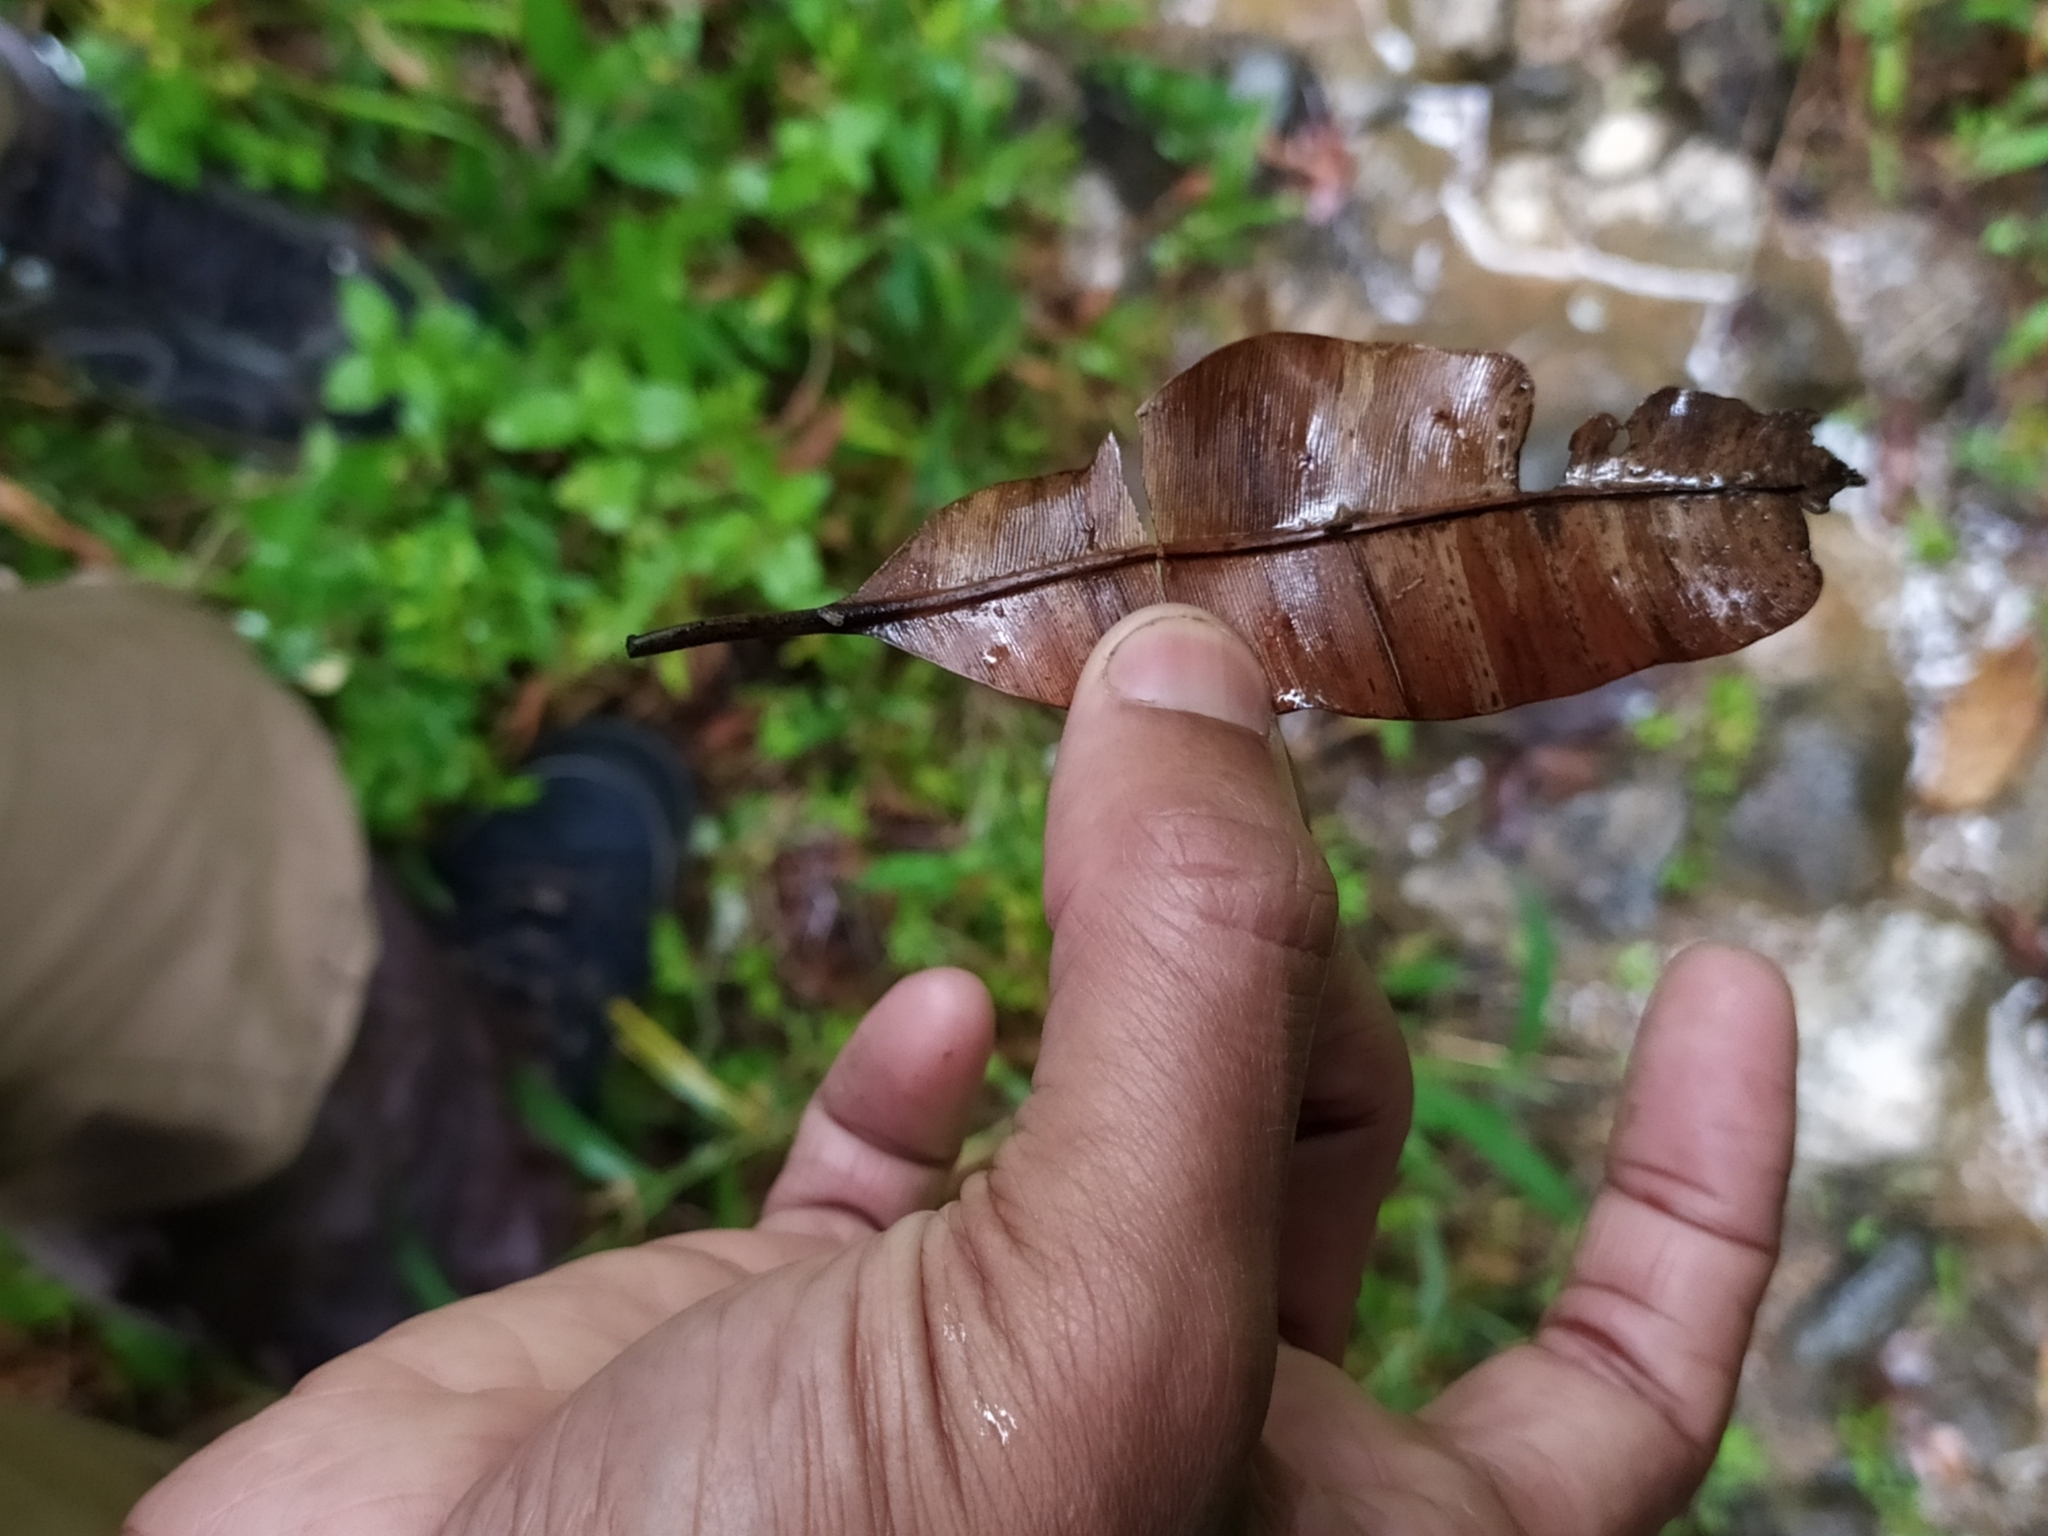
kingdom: Plantae
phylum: Tracheophyta
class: Magnoliopsida
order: Malpighiales
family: Calophyllaceae
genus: Calophyllum
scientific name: Calophyllum polyanthum
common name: Poonspar
